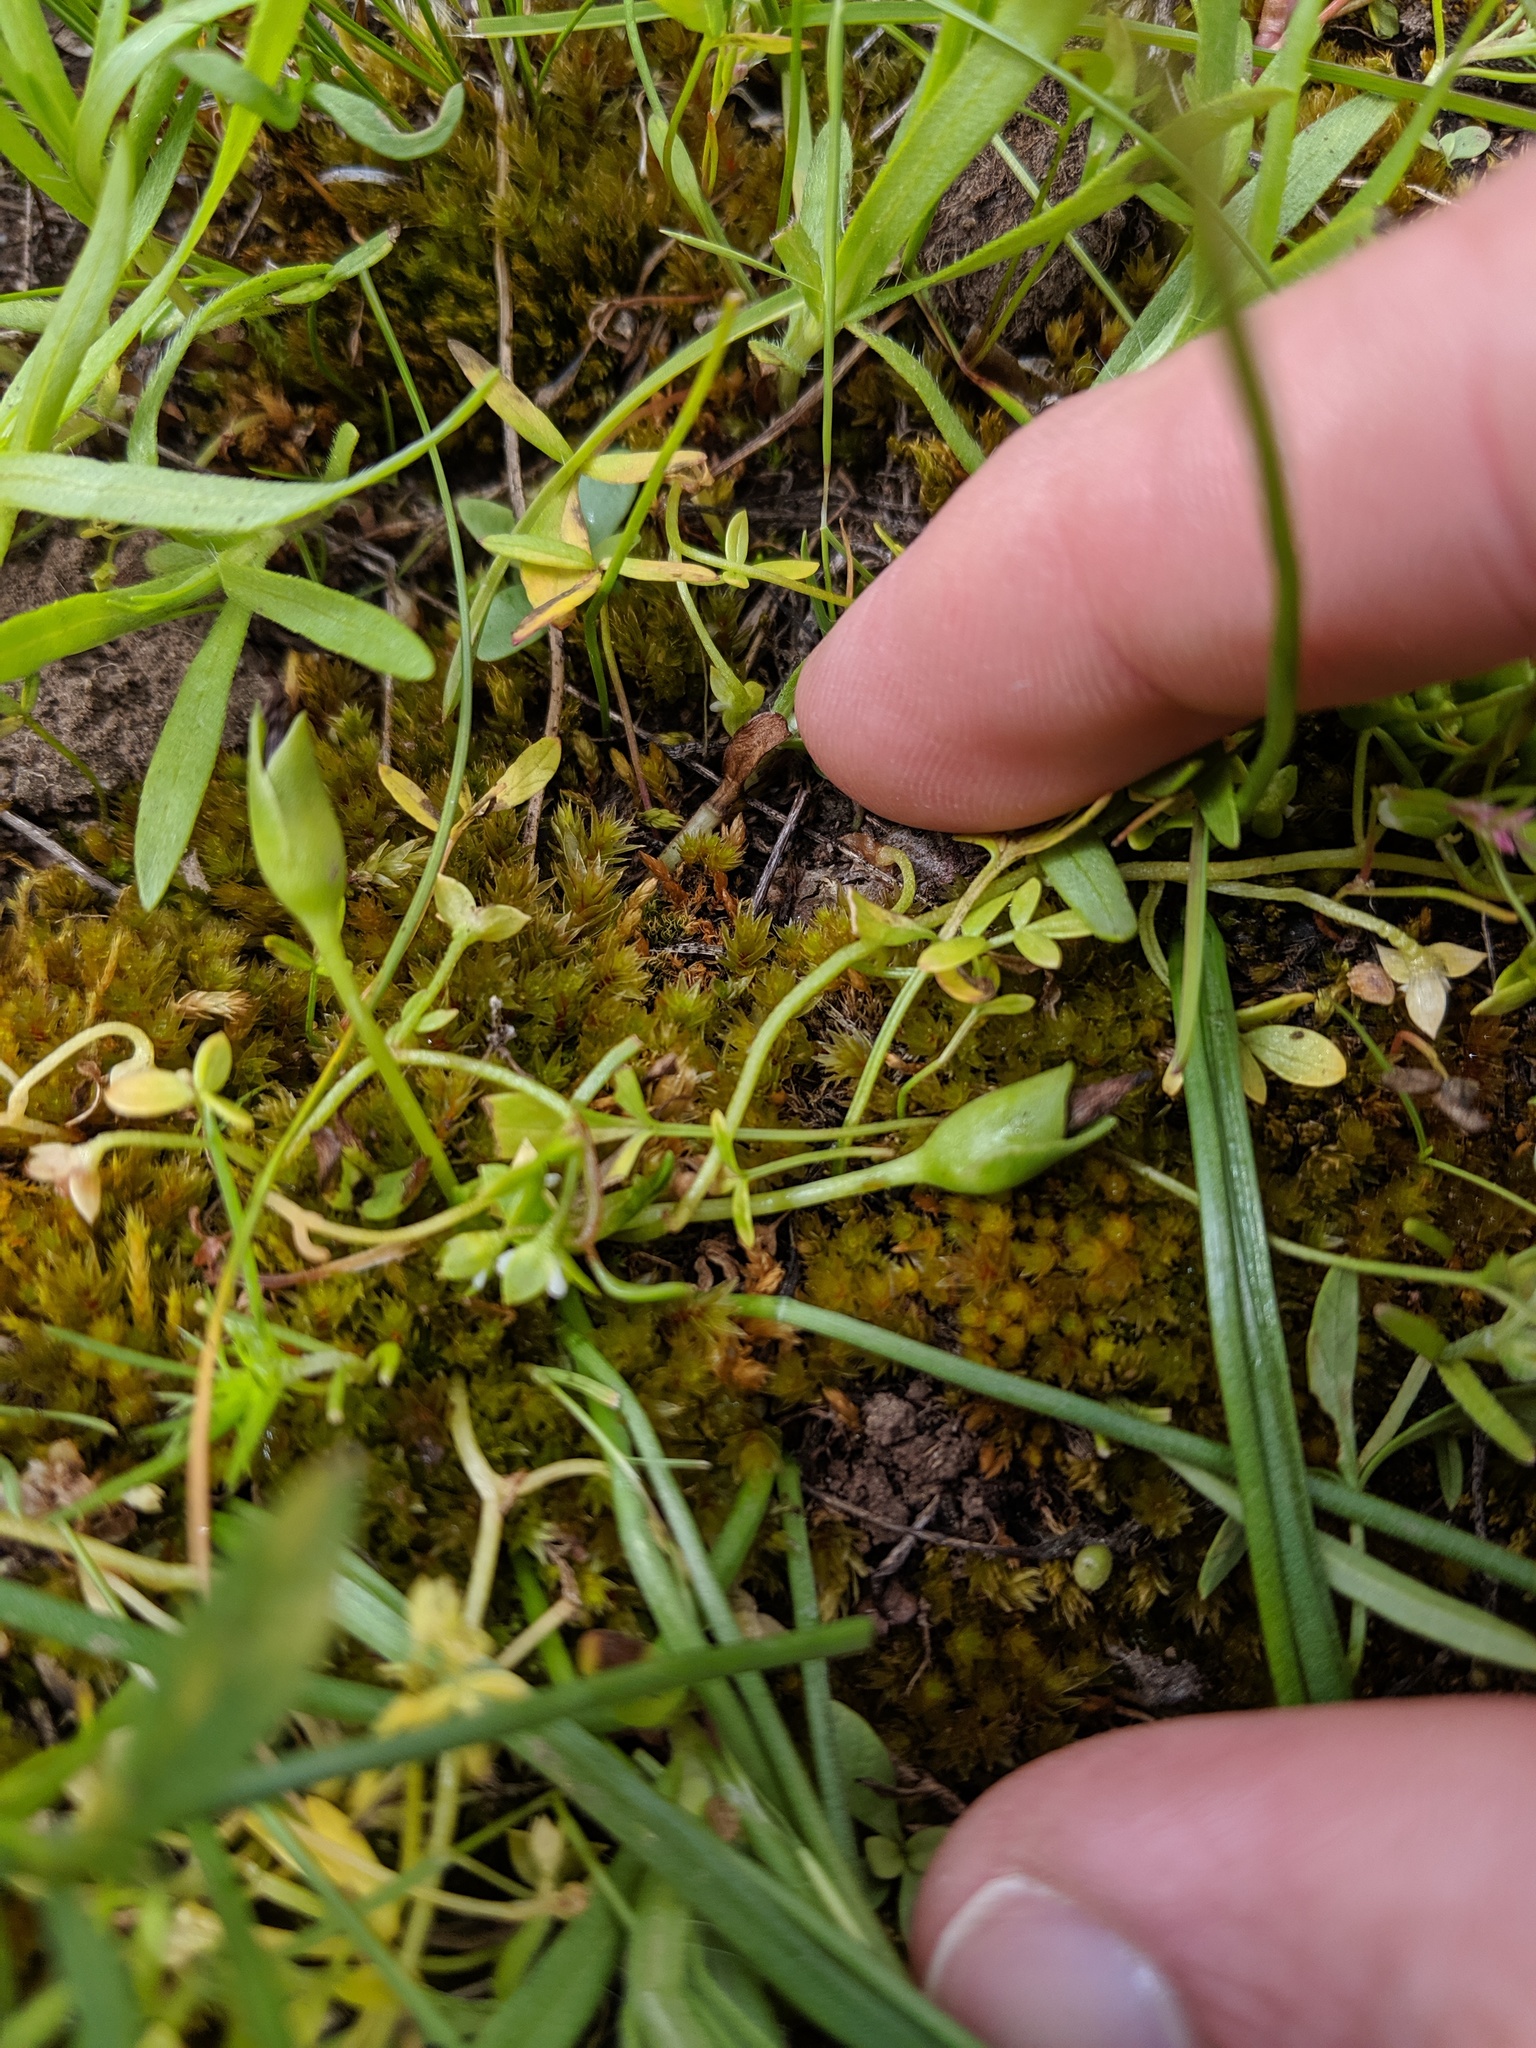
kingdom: Plantae
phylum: Tracheophyta
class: Magnoliopsida
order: Caryophyllales
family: Montiaceae
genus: Lewisia
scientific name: Lewisia nevadensis
